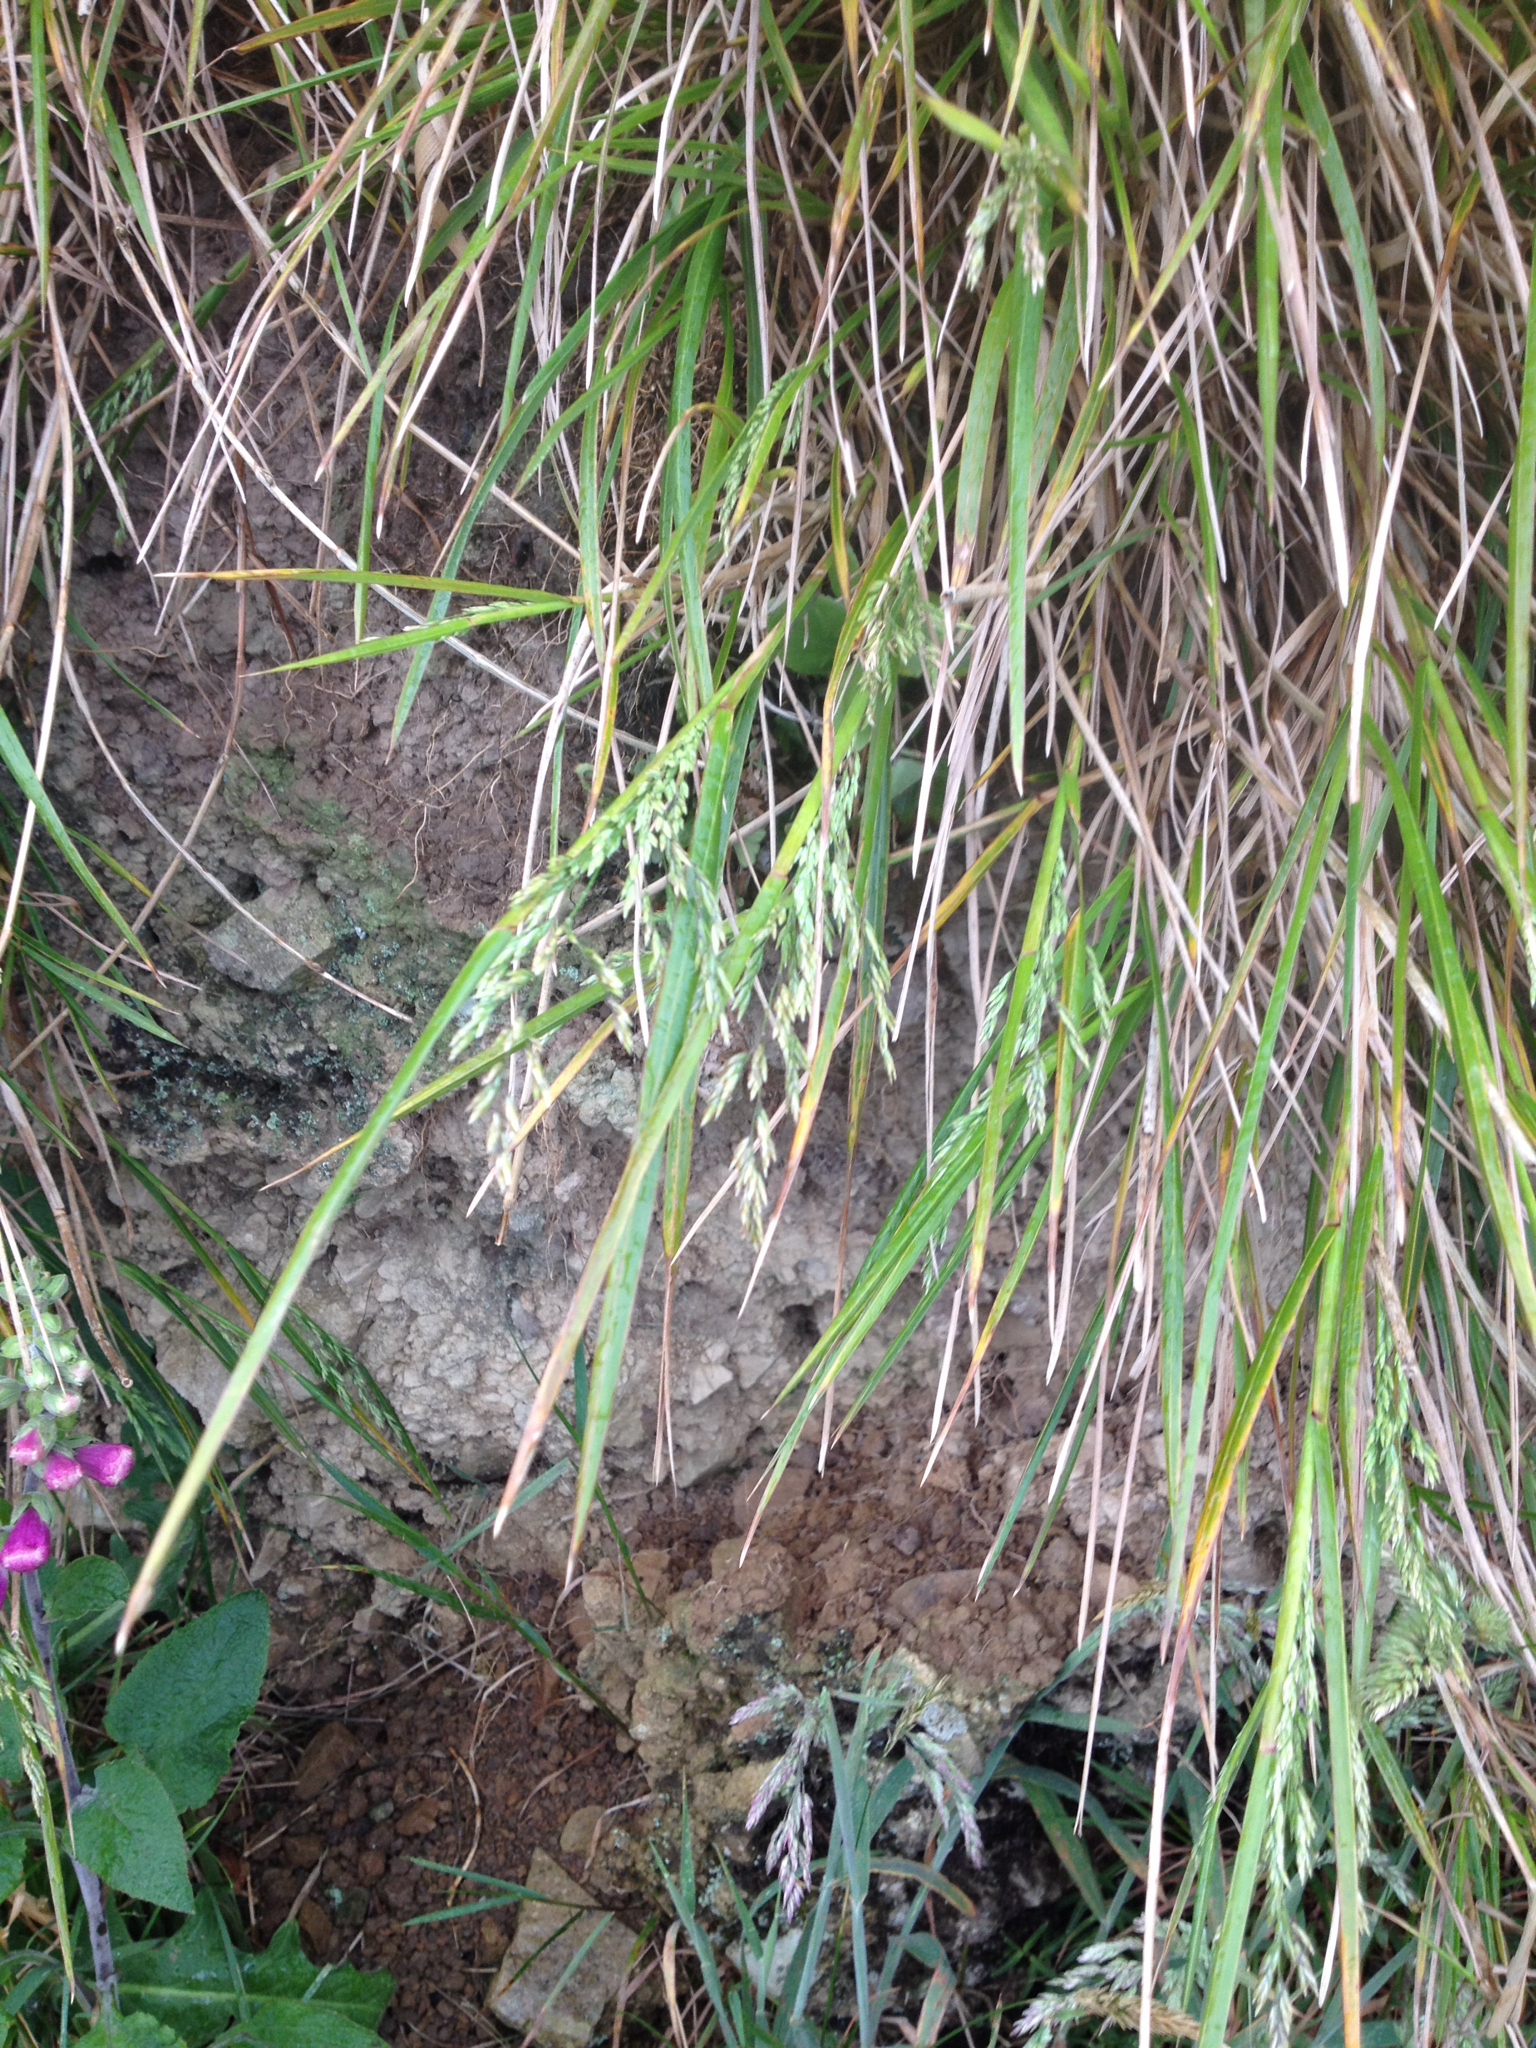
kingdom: Plantae
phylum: Tracheophyta
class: Liliopsida
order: Poales
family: Poaceae
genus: Poa
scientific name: Poa anceps
